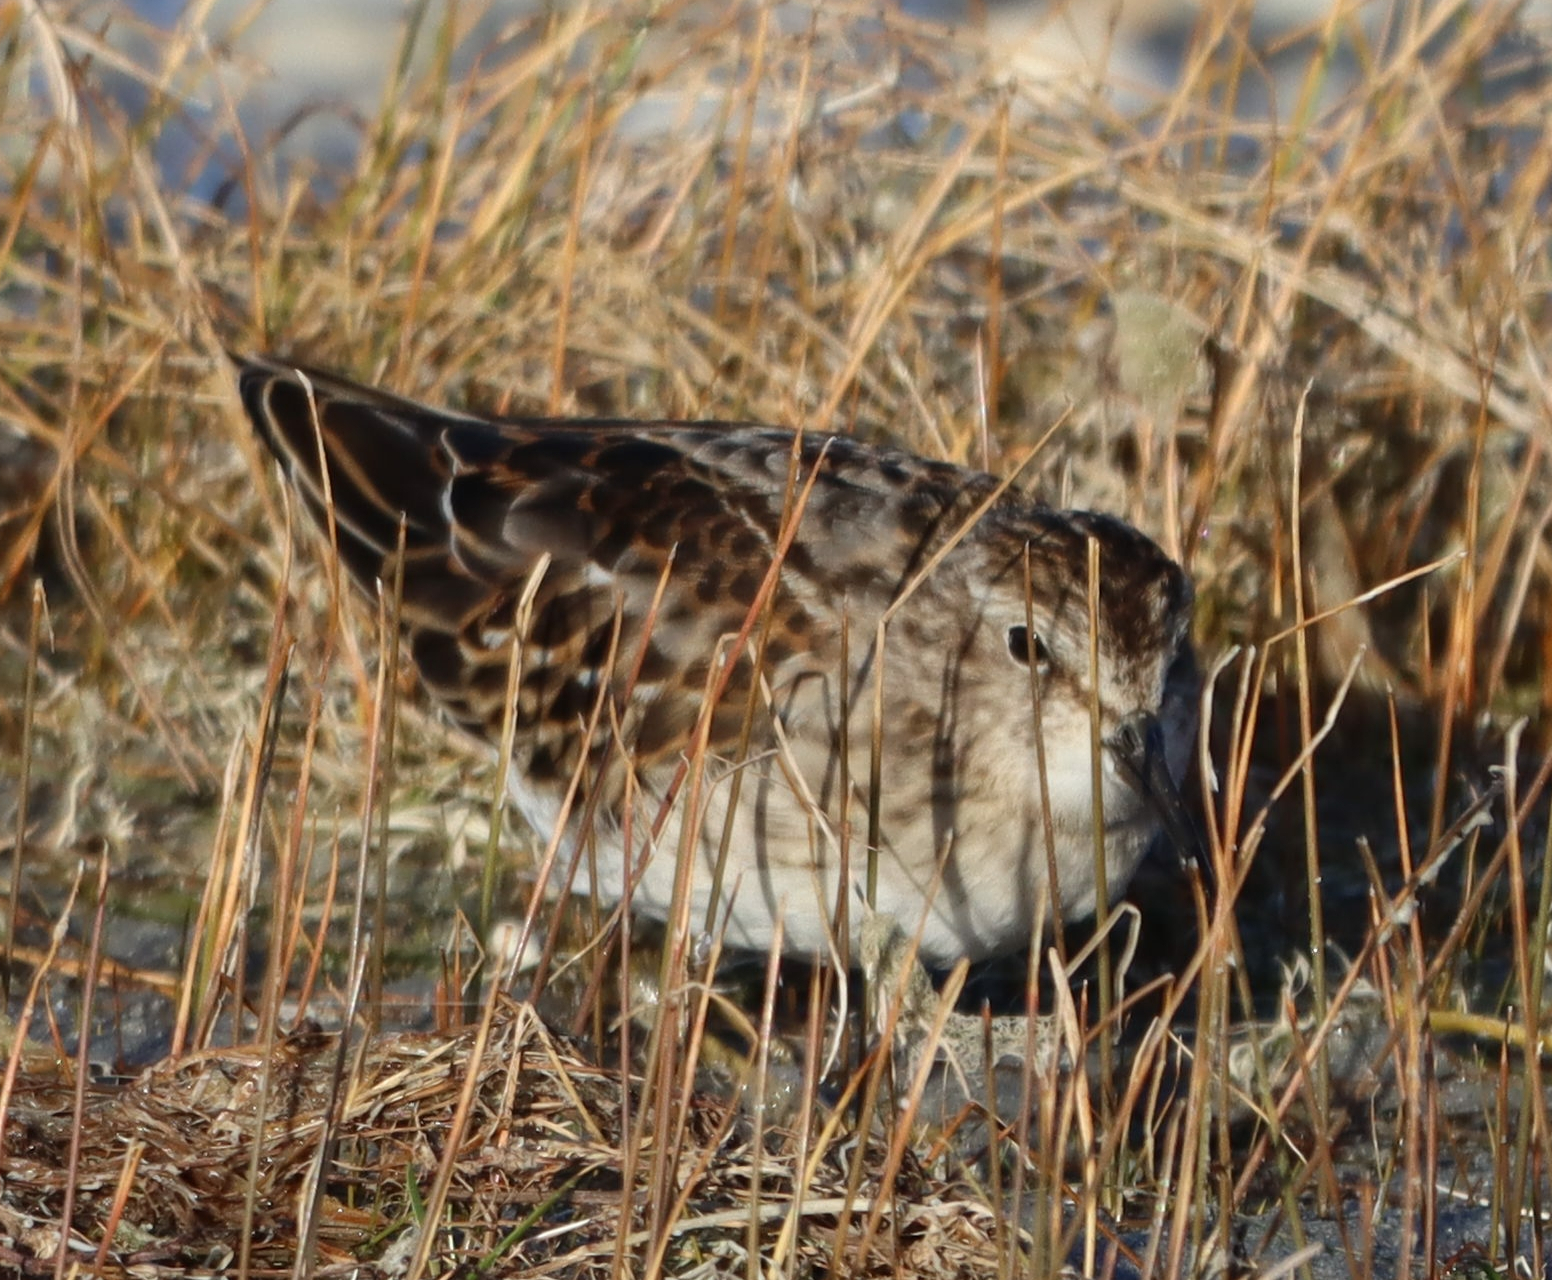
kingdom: Animalia
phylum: Chordata
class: Aves
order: Charadriiformes
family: Scolopacidae
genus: Calidris
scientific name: Calidris minutilla
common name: Least sandpiper
